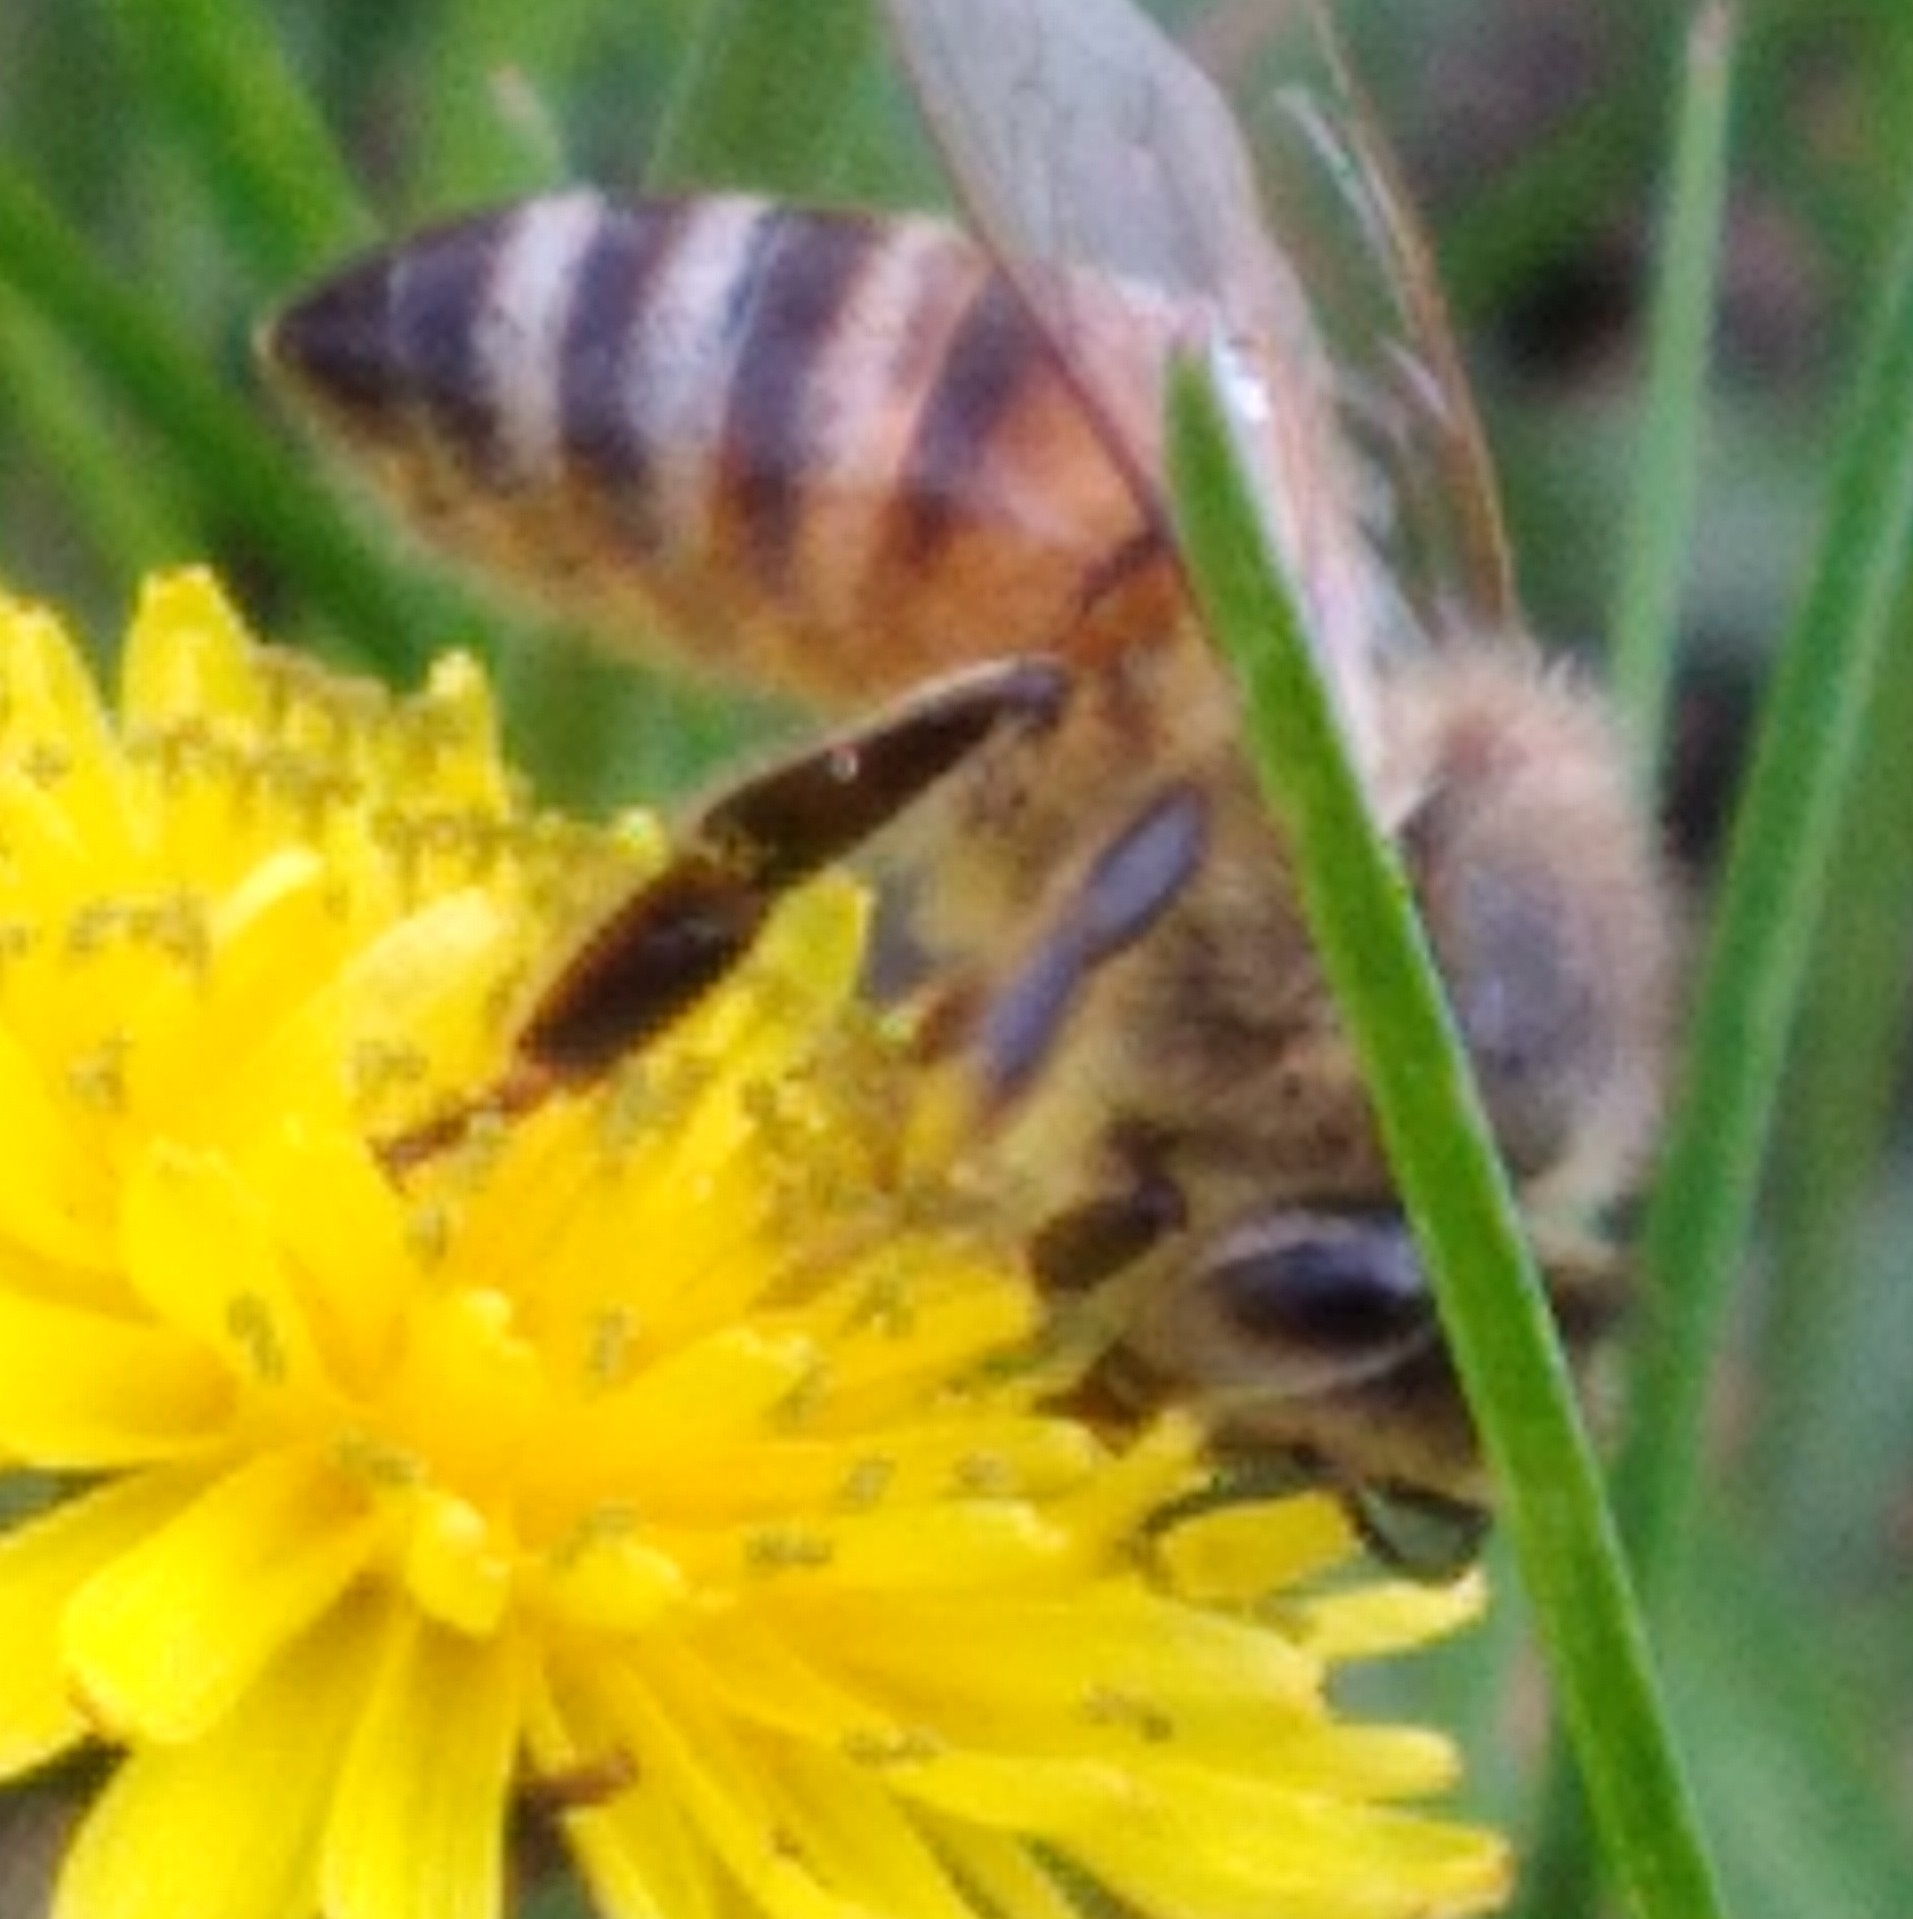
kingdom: Animalia
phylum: Arthropoda
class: Insecta
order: Hymenoptera
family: Apidae
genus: Apis
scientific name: Apis mellifera
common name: Honey bee
